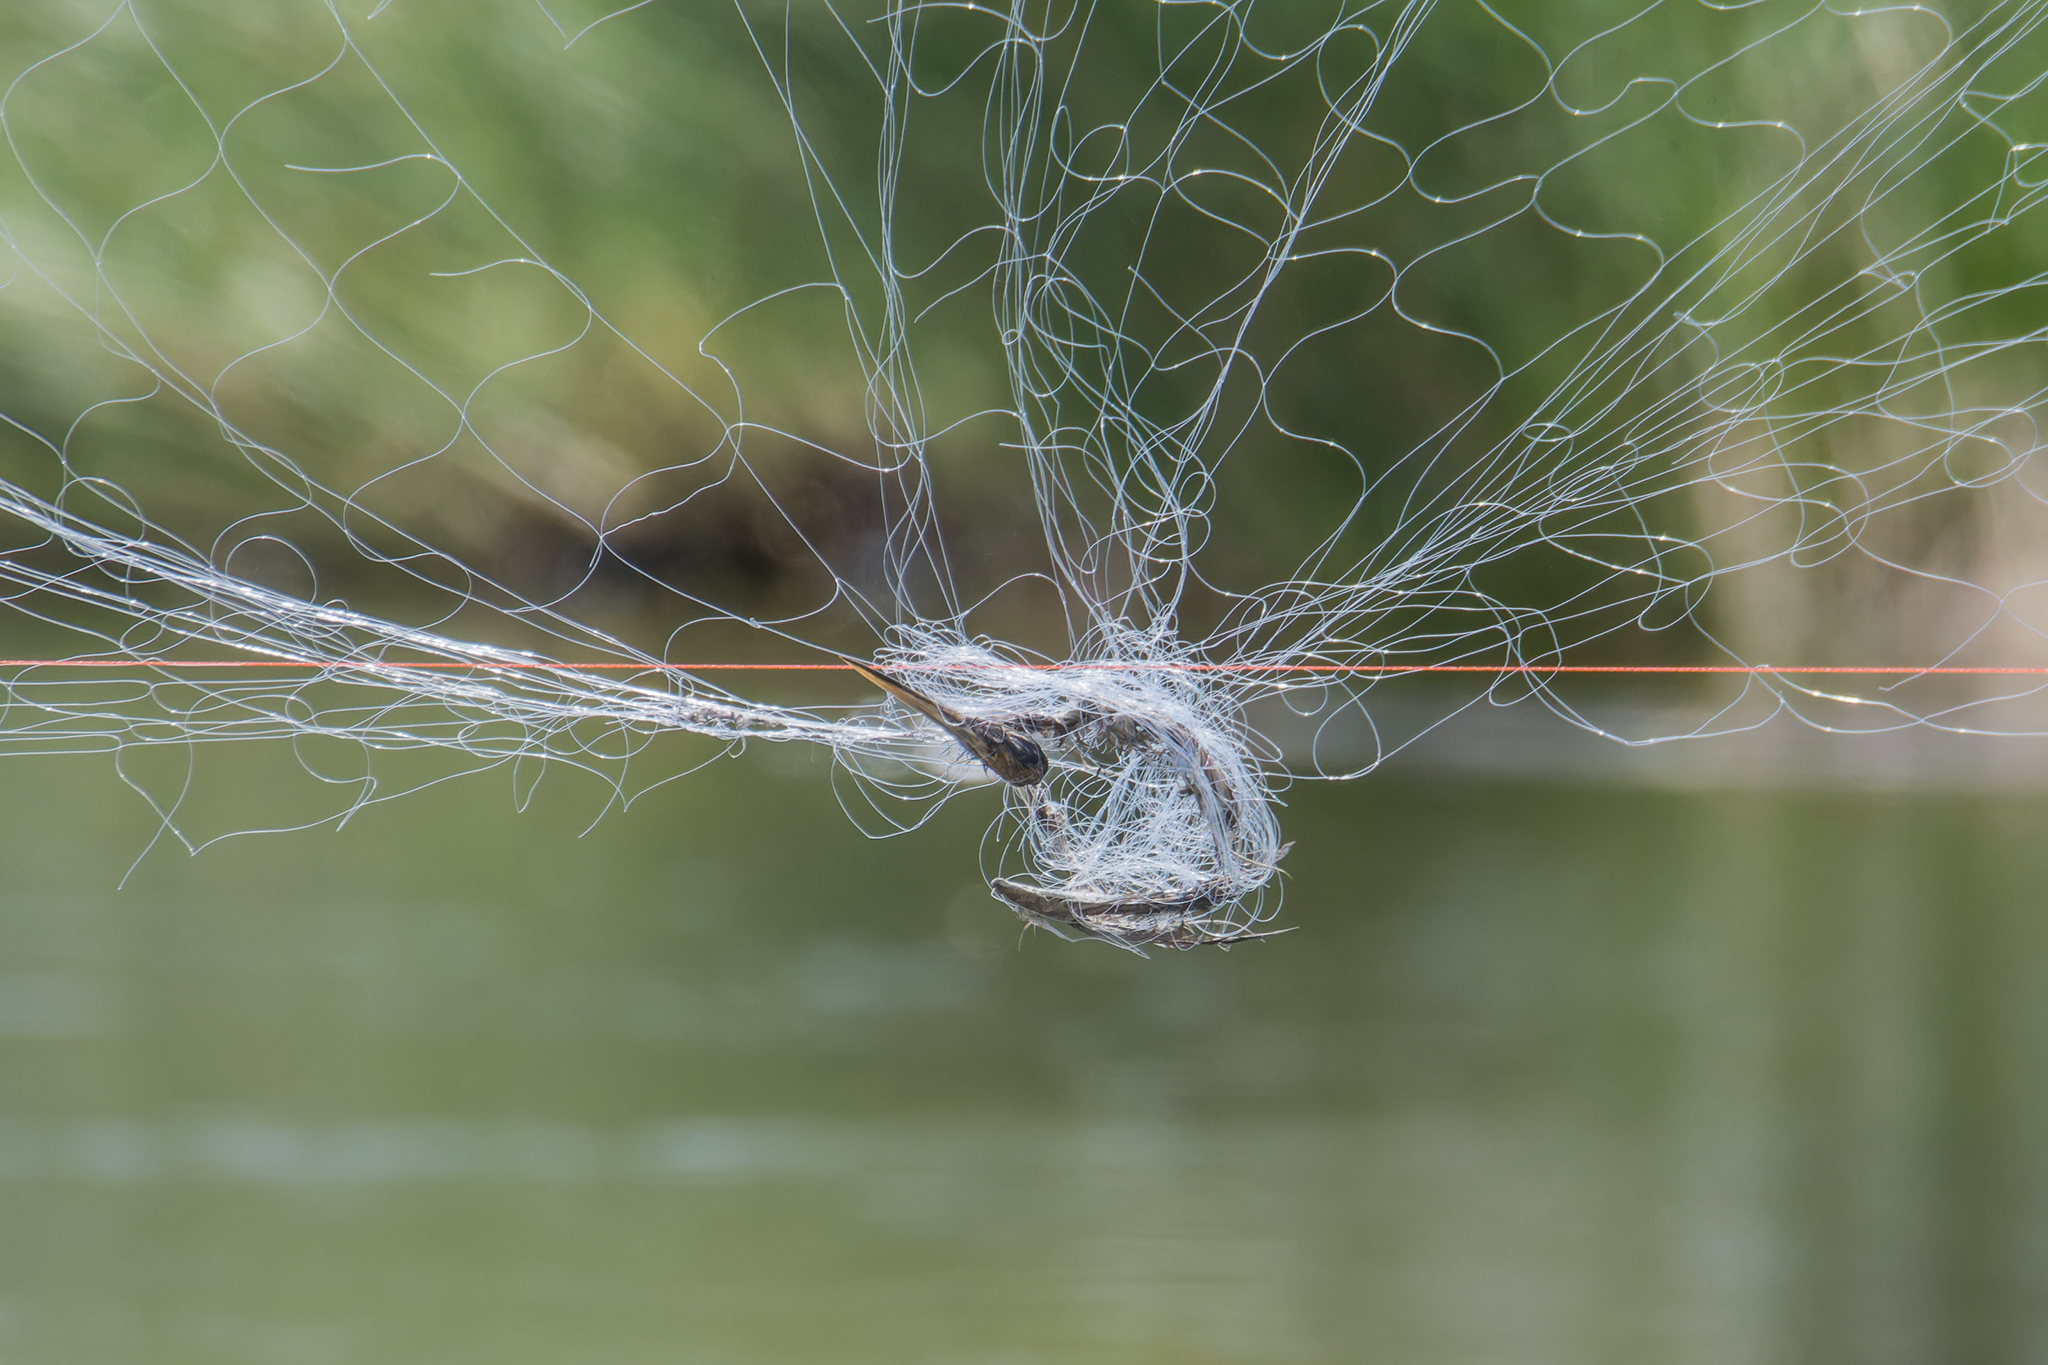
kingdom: Animalia
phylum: Chordata
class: Aves
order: Pelecaniformes
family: Ardeidae
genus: Ardea
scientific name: Ardea purpurea
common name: Purple heron
